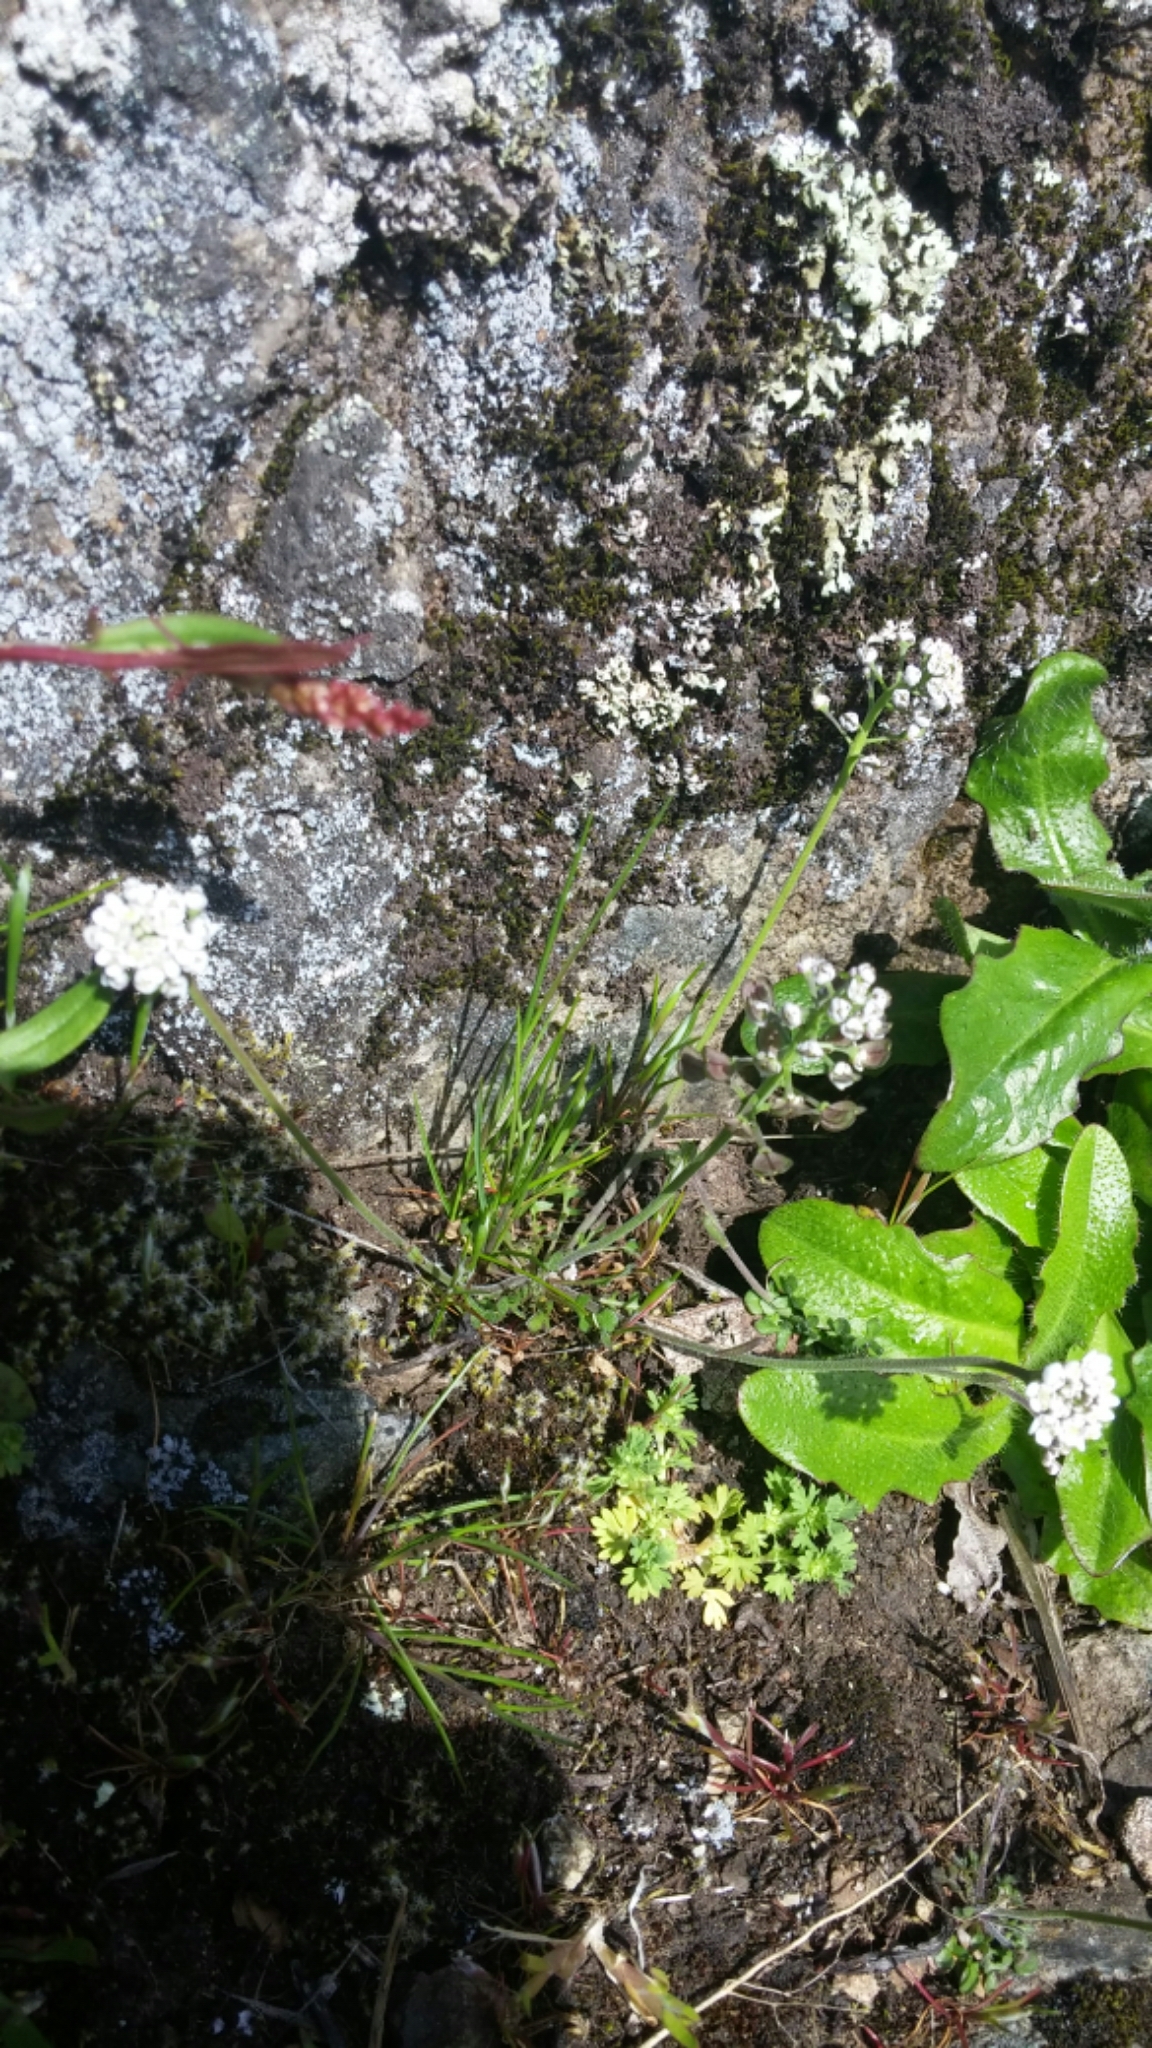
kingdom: Plantae
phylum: Tracheophyta
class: Magnoliopsida
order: Brassicales
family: Brassicaceae
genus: Teesdalia
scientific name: Teesdalia nudicaulis
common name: Shepherd's cress
